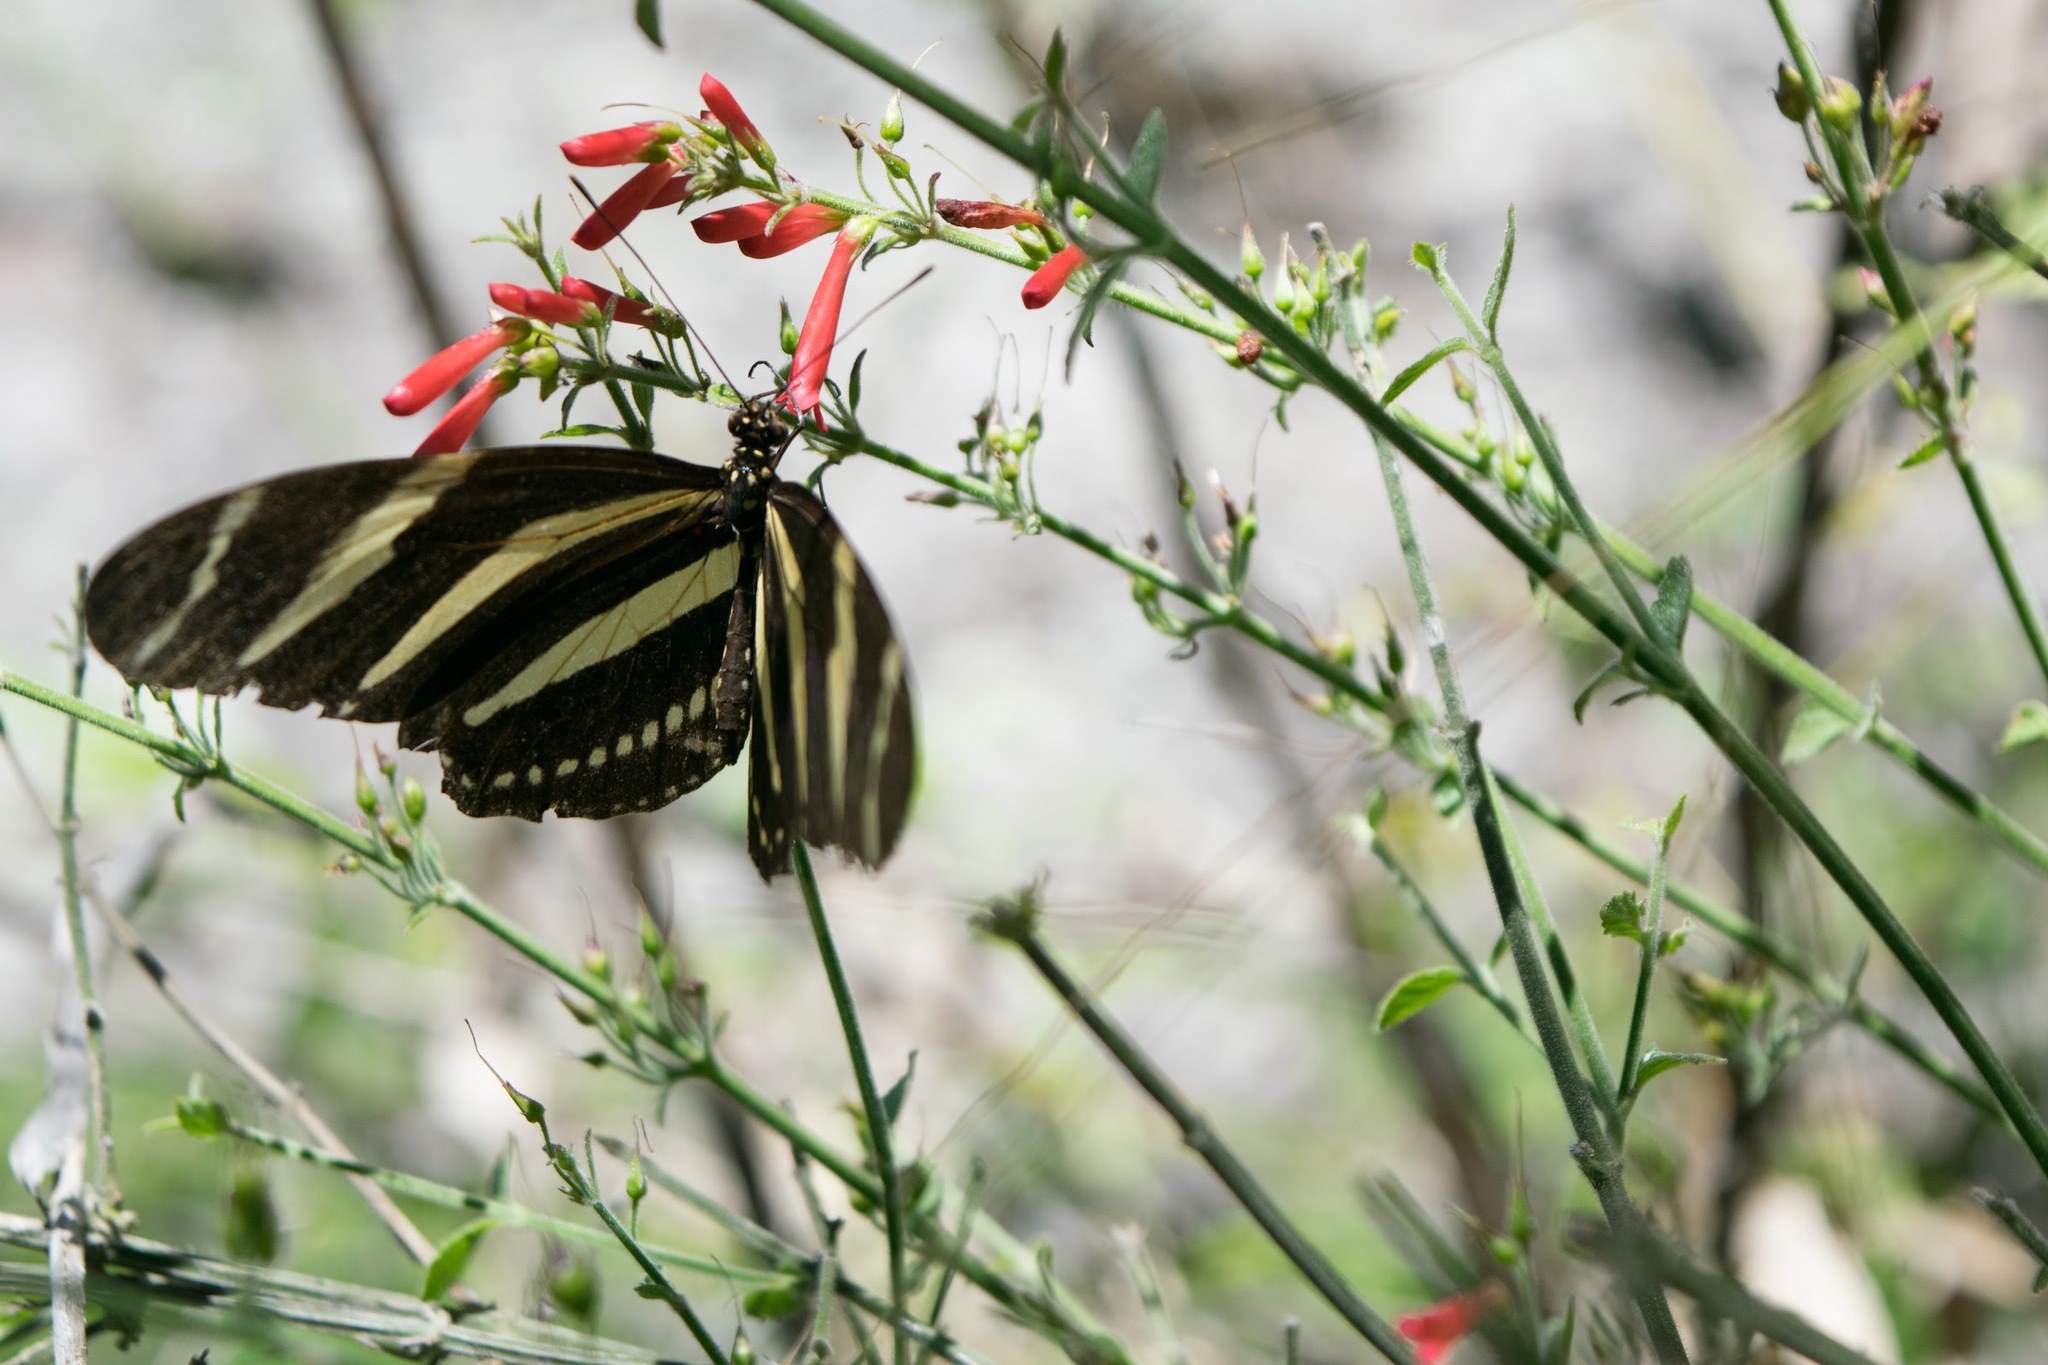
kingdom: Animalia
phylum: Arthropoda
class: Insecta
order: Lepidoptera
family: Nymphalidae
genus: Heliconius
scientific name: Heliconius charithonia
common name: Zebra long wing
